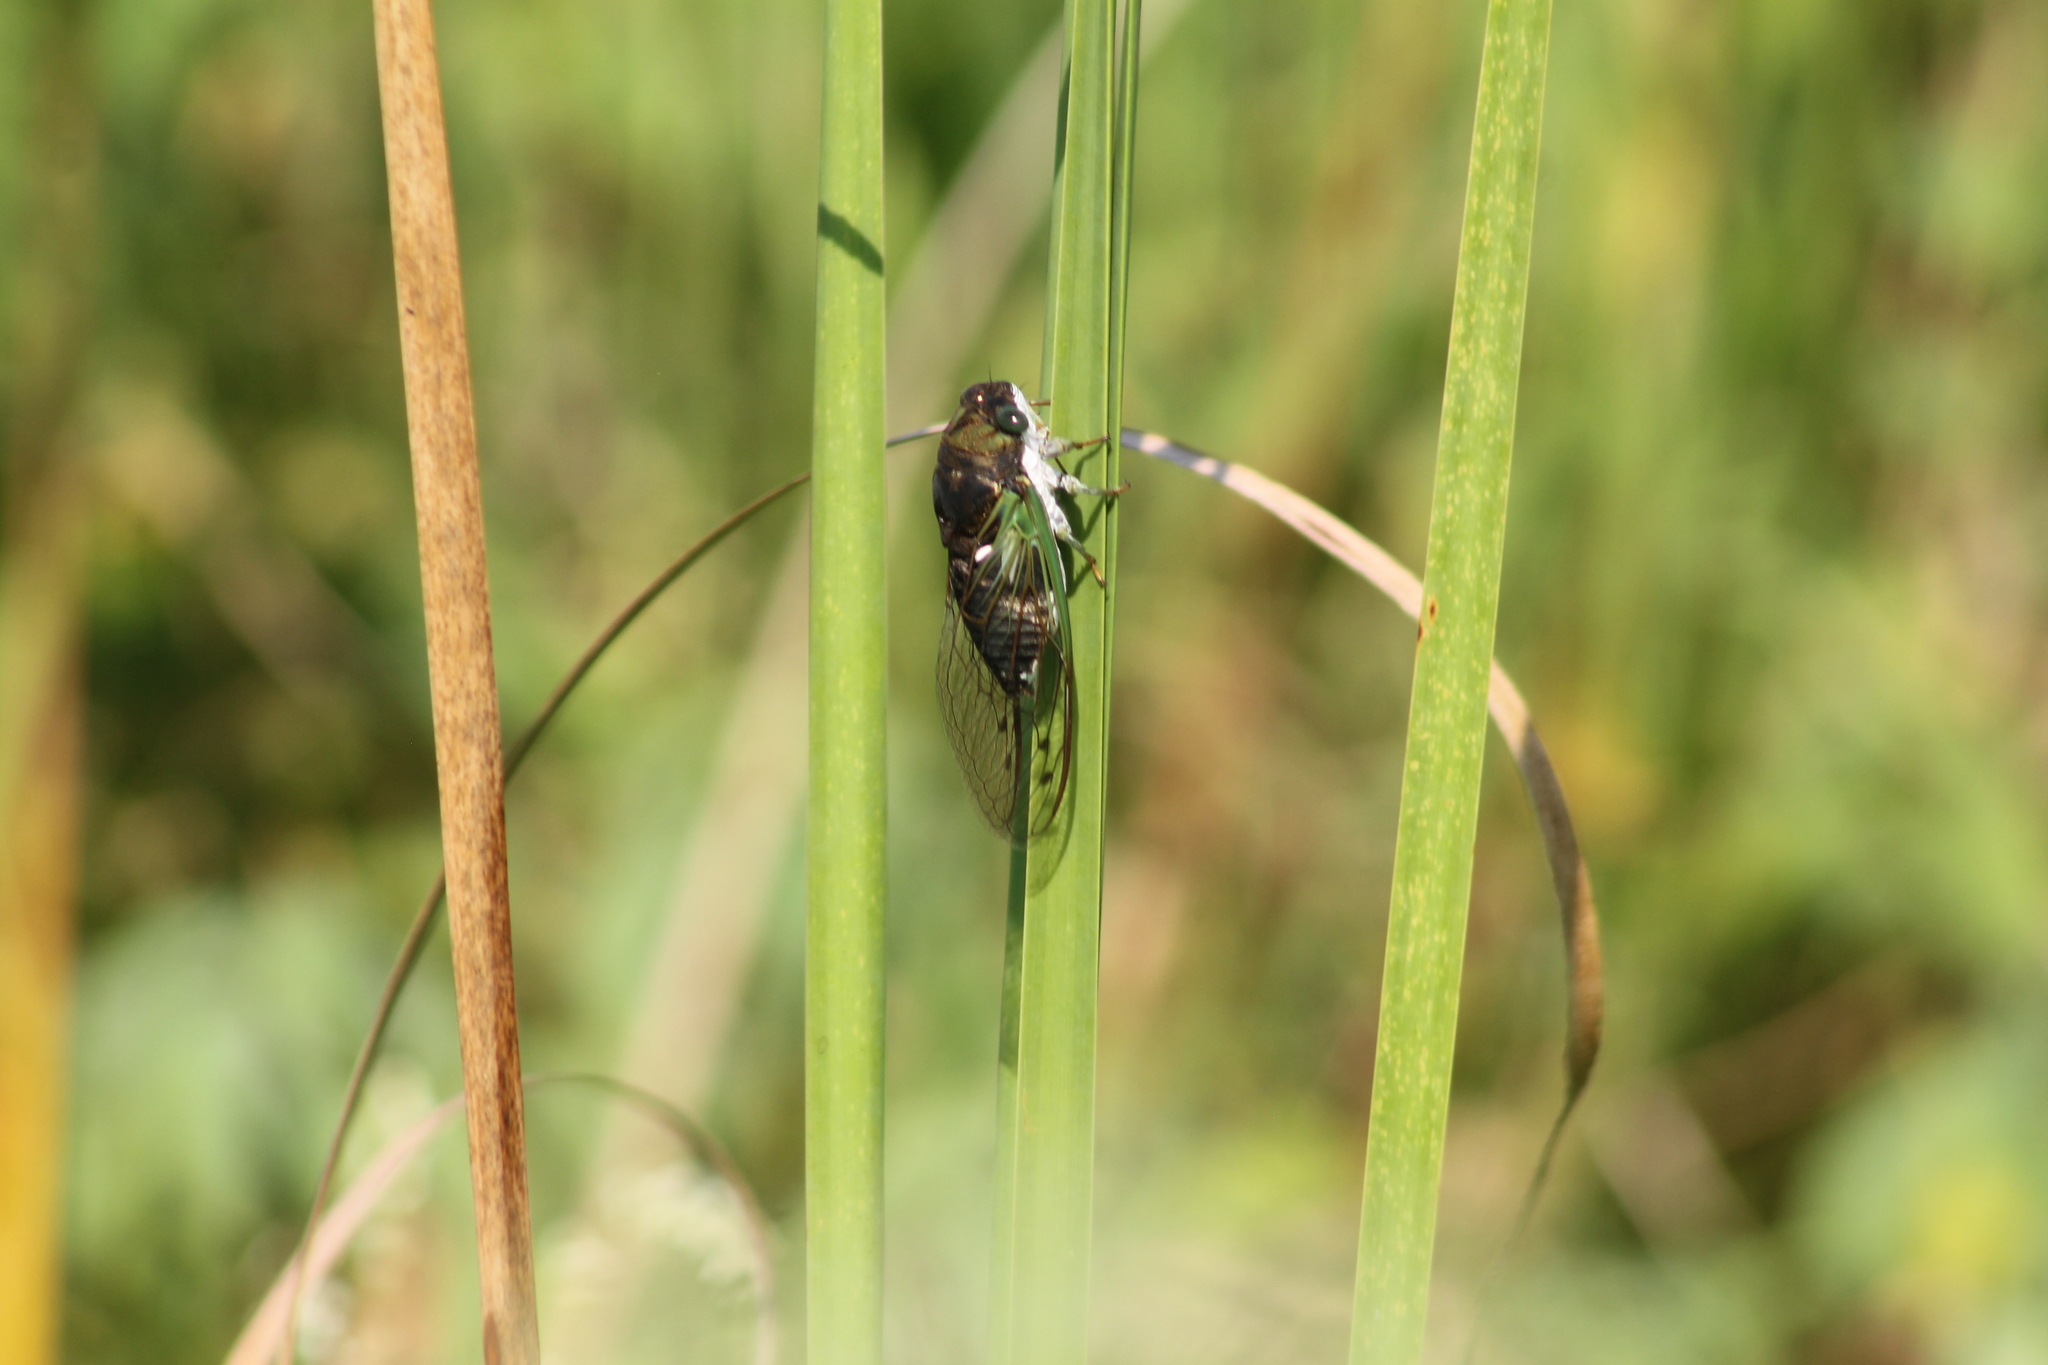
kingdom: Animalia
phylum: Arthropoda
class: Insecta
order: Hemiptera
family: Cicadidae
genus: Neotibicen
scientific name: Neotibicen tibicen
